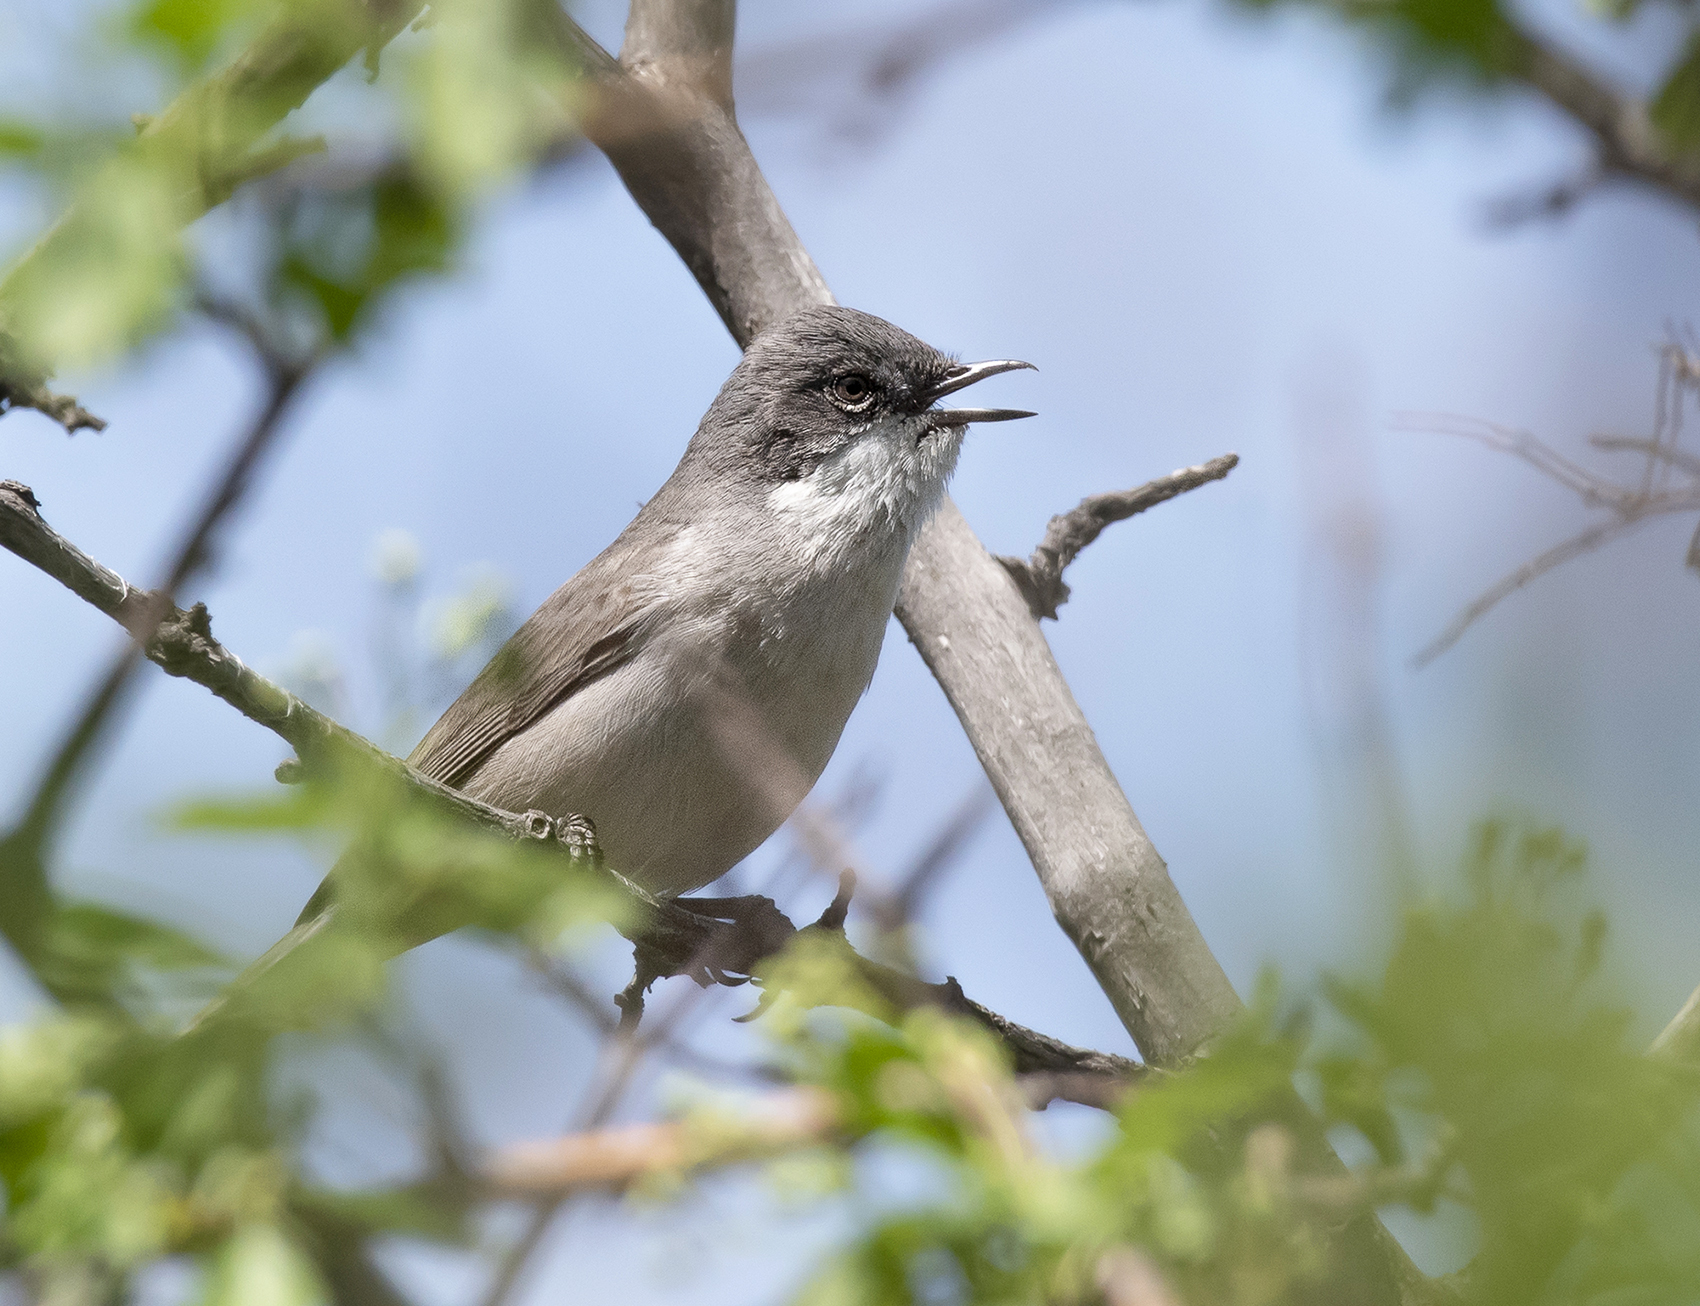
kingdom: Animalia
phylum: Chordata
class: Aves
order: Passeriformes
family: Sylviidae
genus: Sylvia
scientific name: Sylvia curruca
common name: Lesser whitethroat
